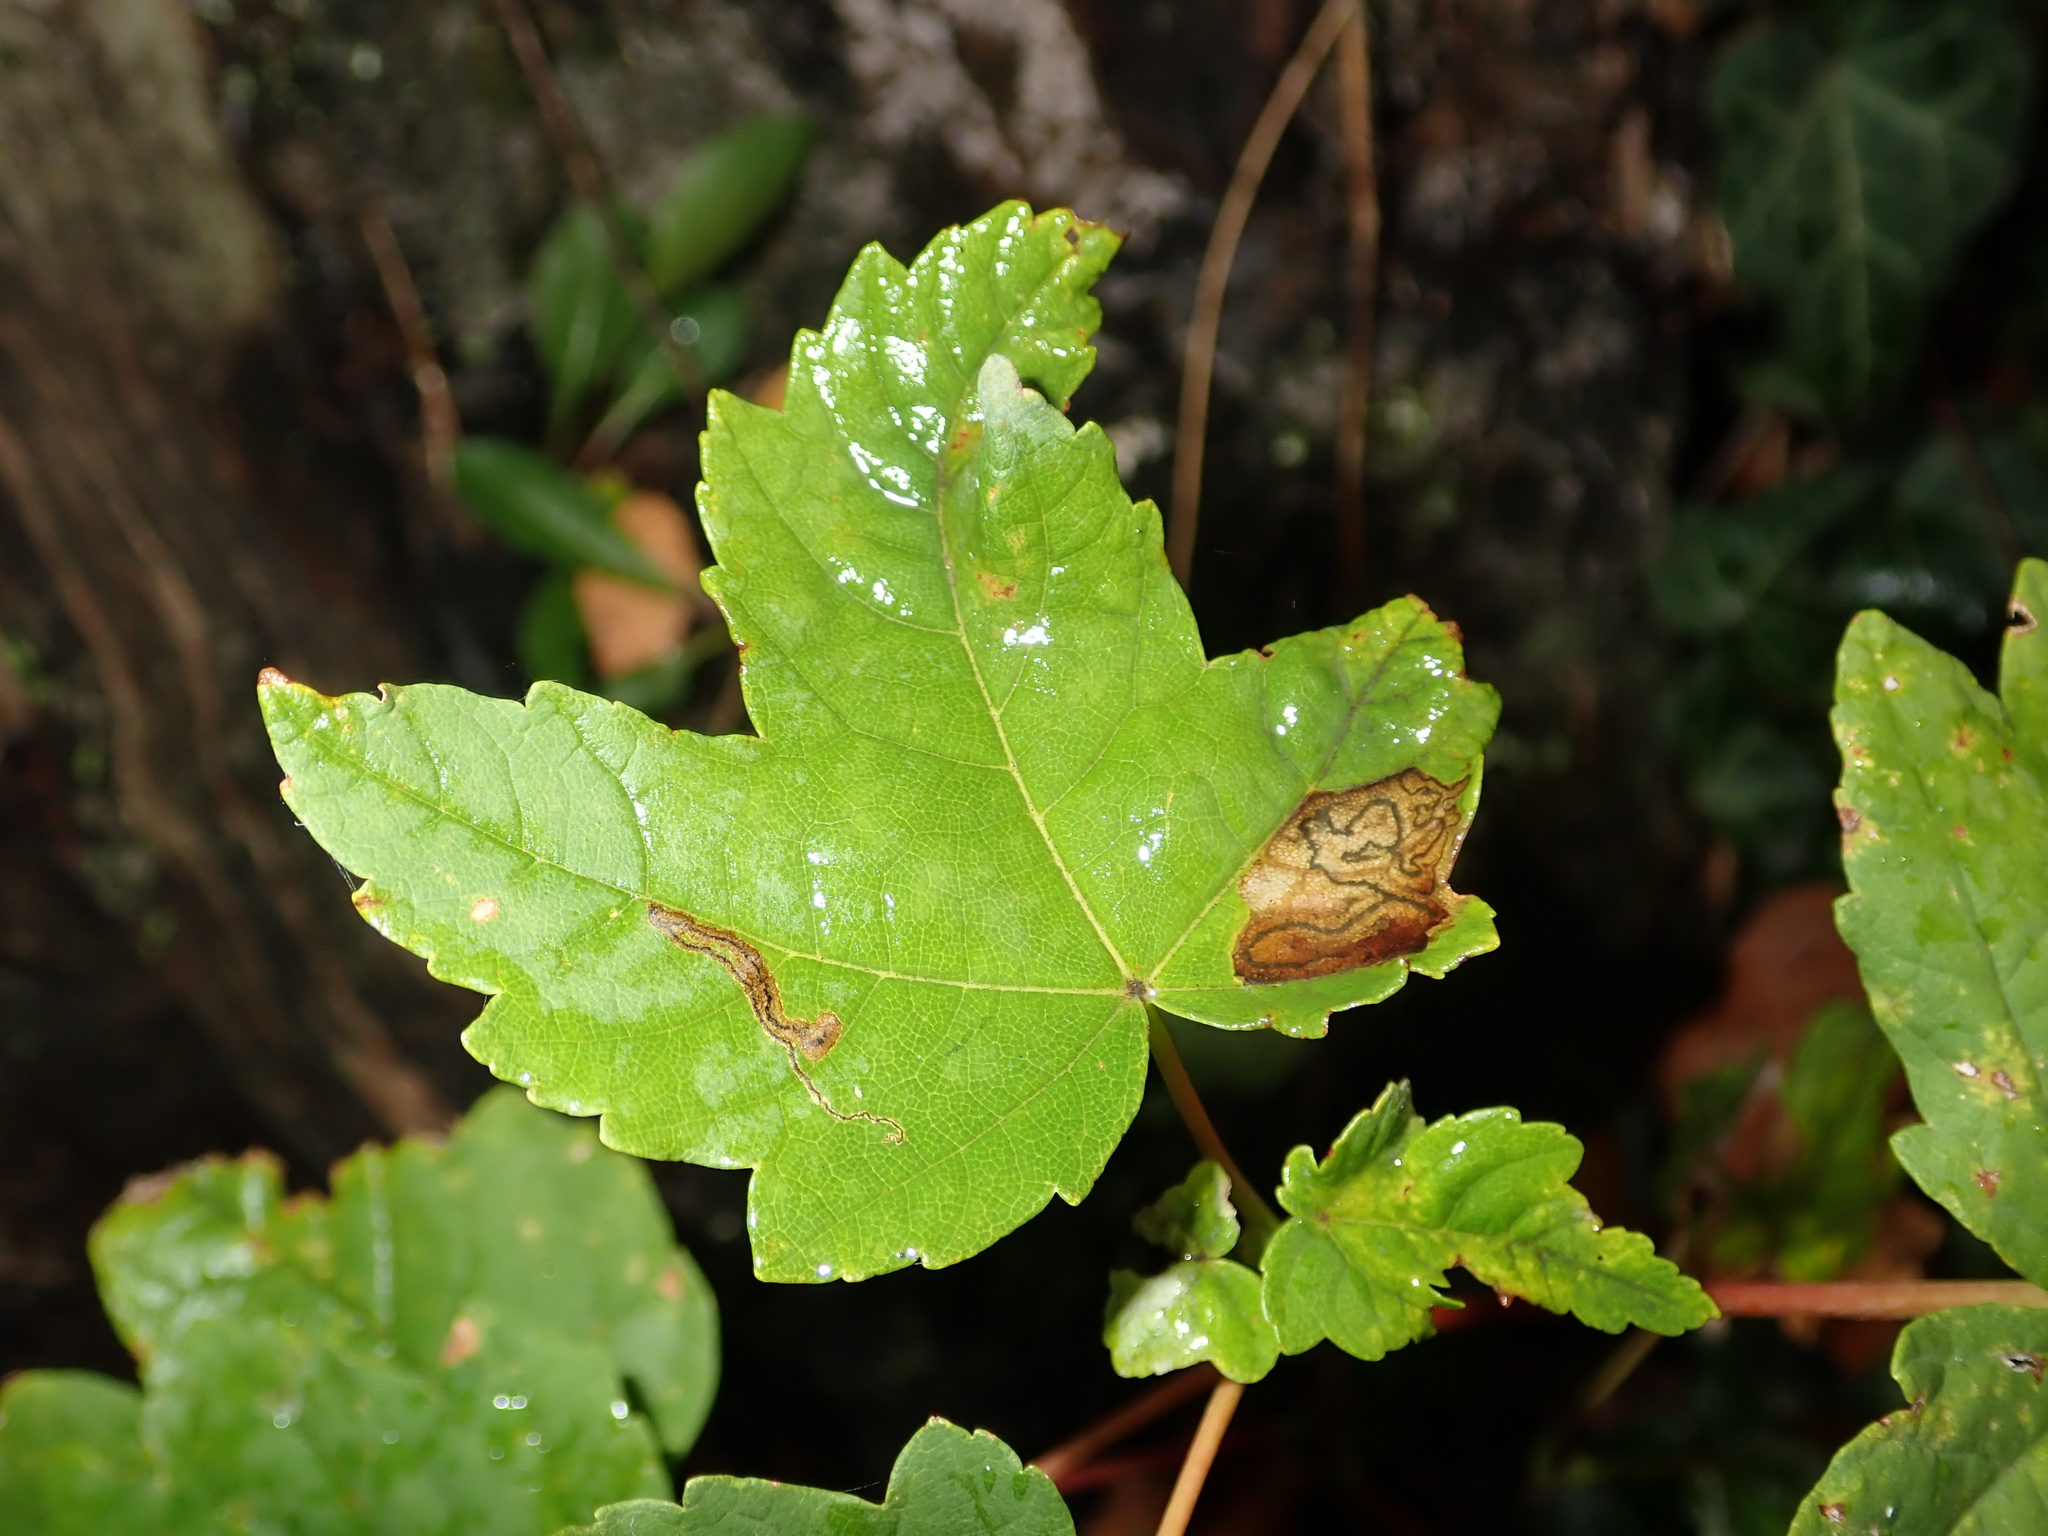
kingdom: Plantae
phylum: Tracheophyta
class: Magnoliopsida
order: Sapindales
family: Sapindaceae
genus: Acer
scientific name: Acer pseudoplatanus
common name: Sycamore
